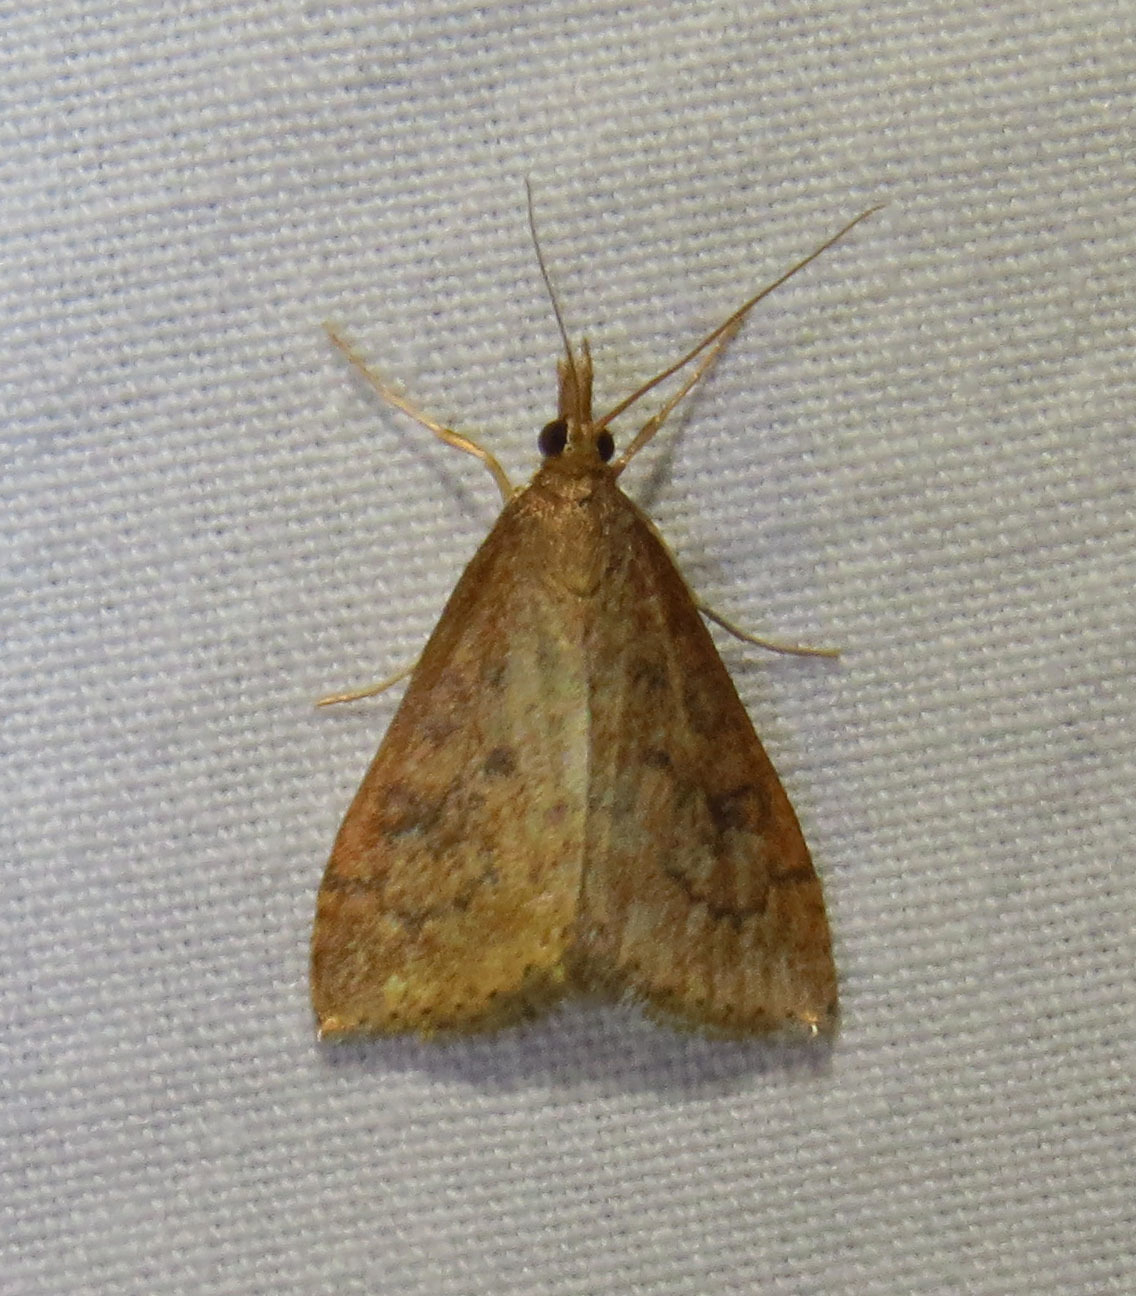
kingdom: Animalia
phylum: Arthropoda
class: Insecta
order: Lepidoptera
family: Crambidae
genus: Udea
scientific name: Udea rubigalis
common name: Celery leaftier moth
